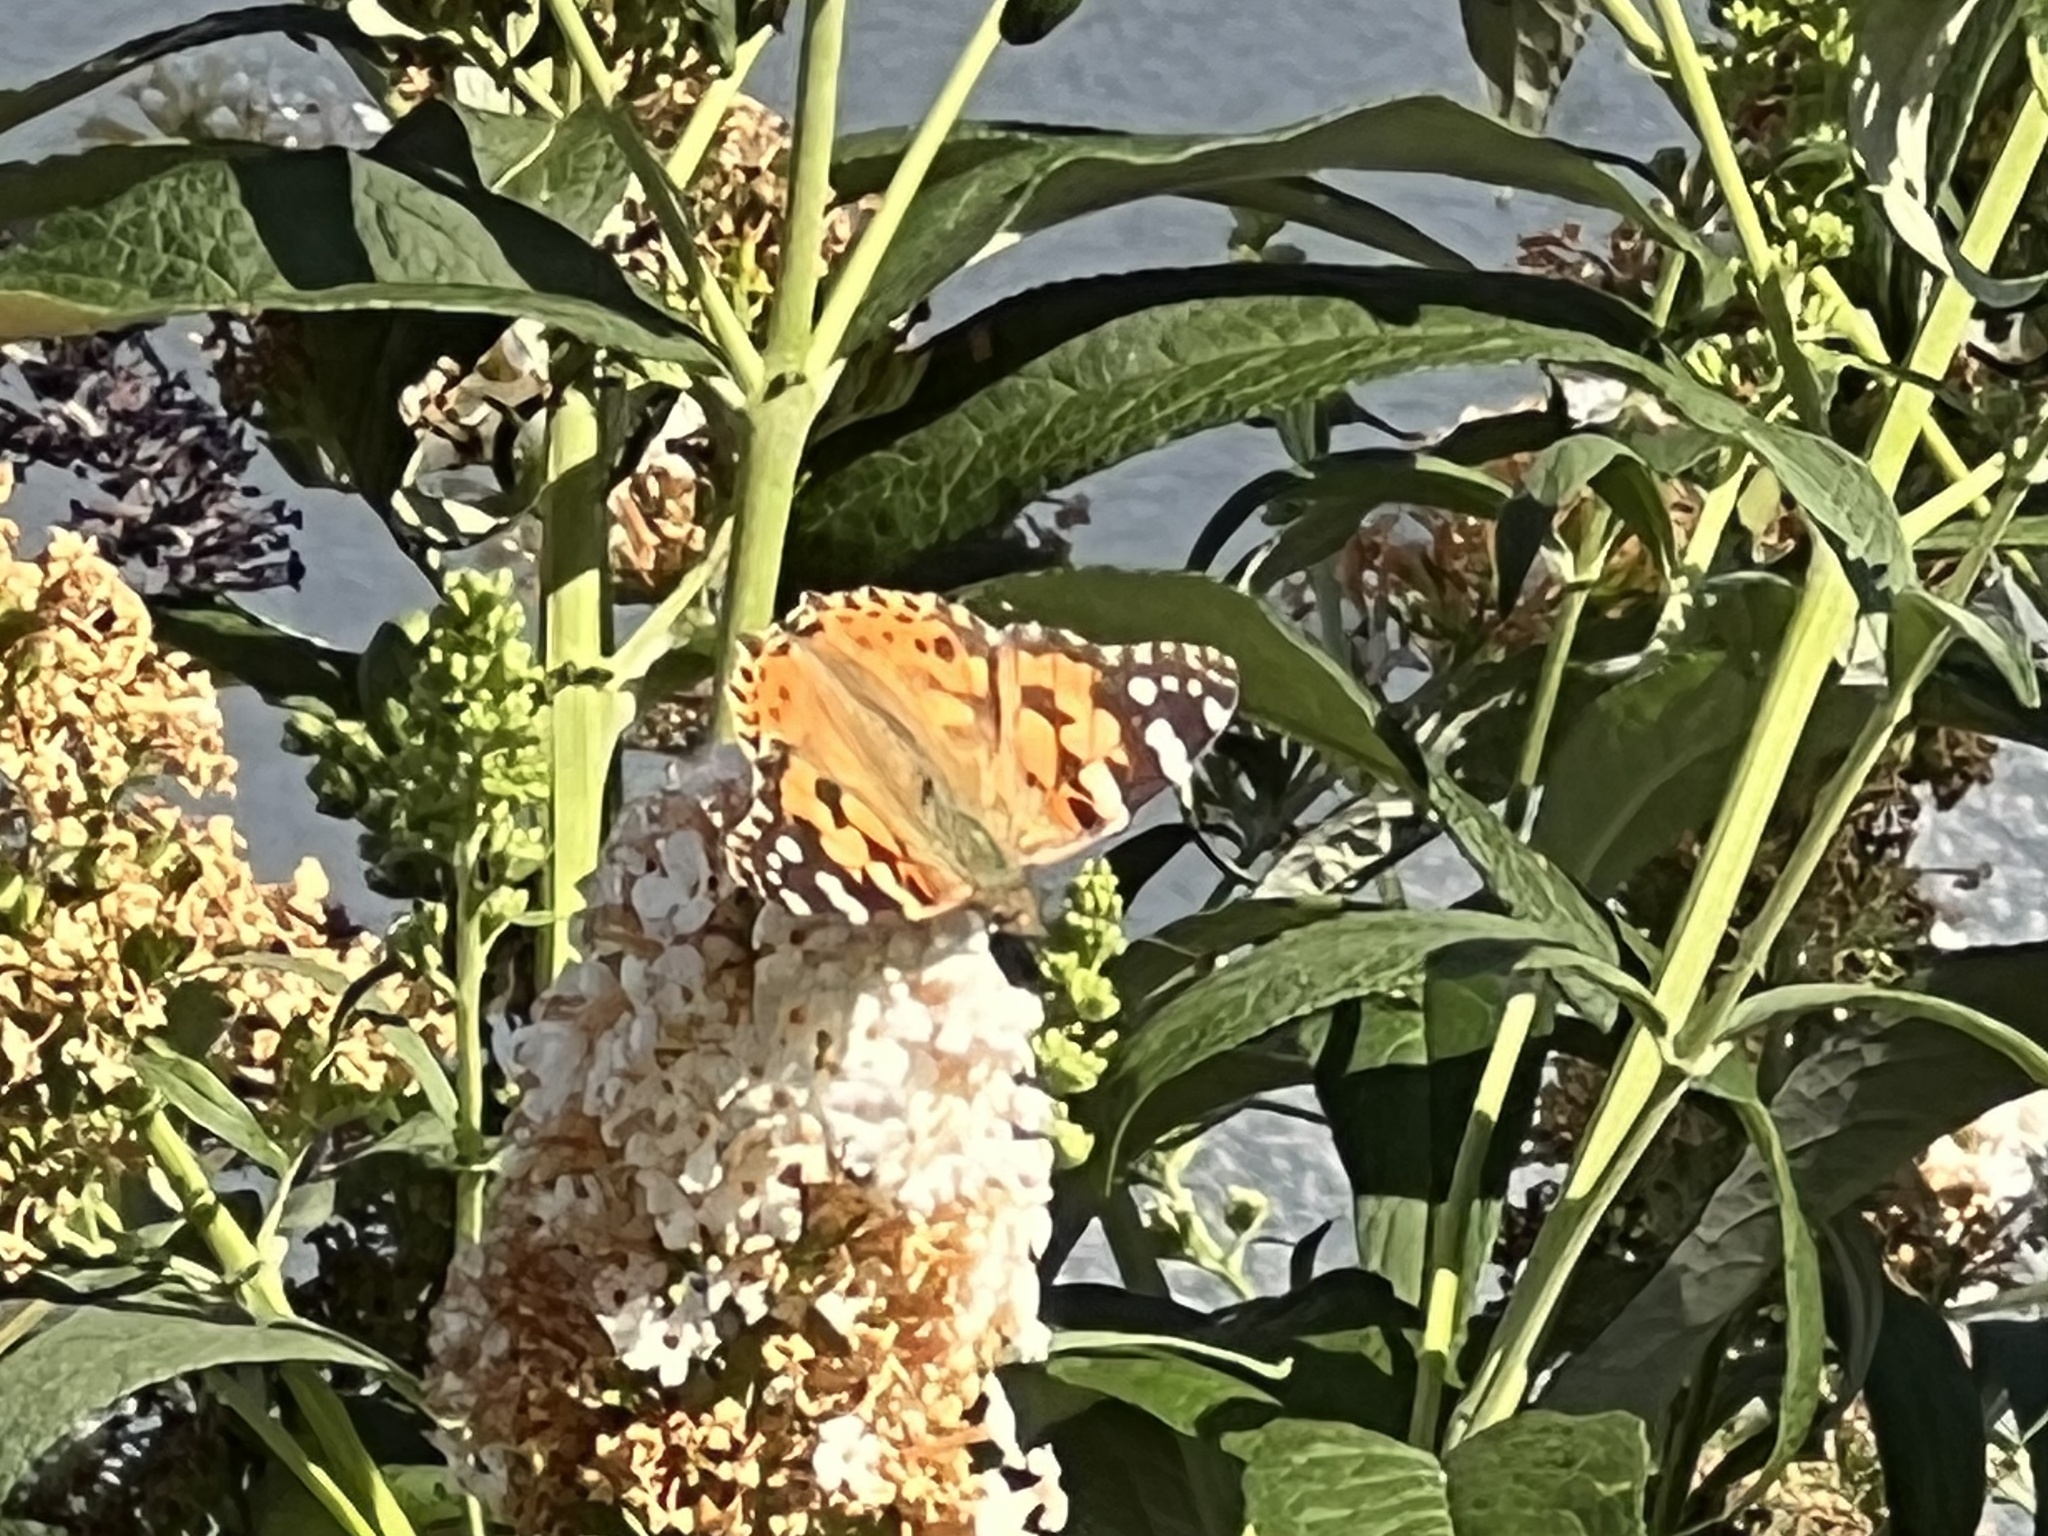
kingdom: Animalia
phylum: Arthropoda
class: Insecta
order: Lepidoptera
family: Nymphalidae
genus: Vanessa
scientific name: Vanessa cardui
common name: Painted lady
